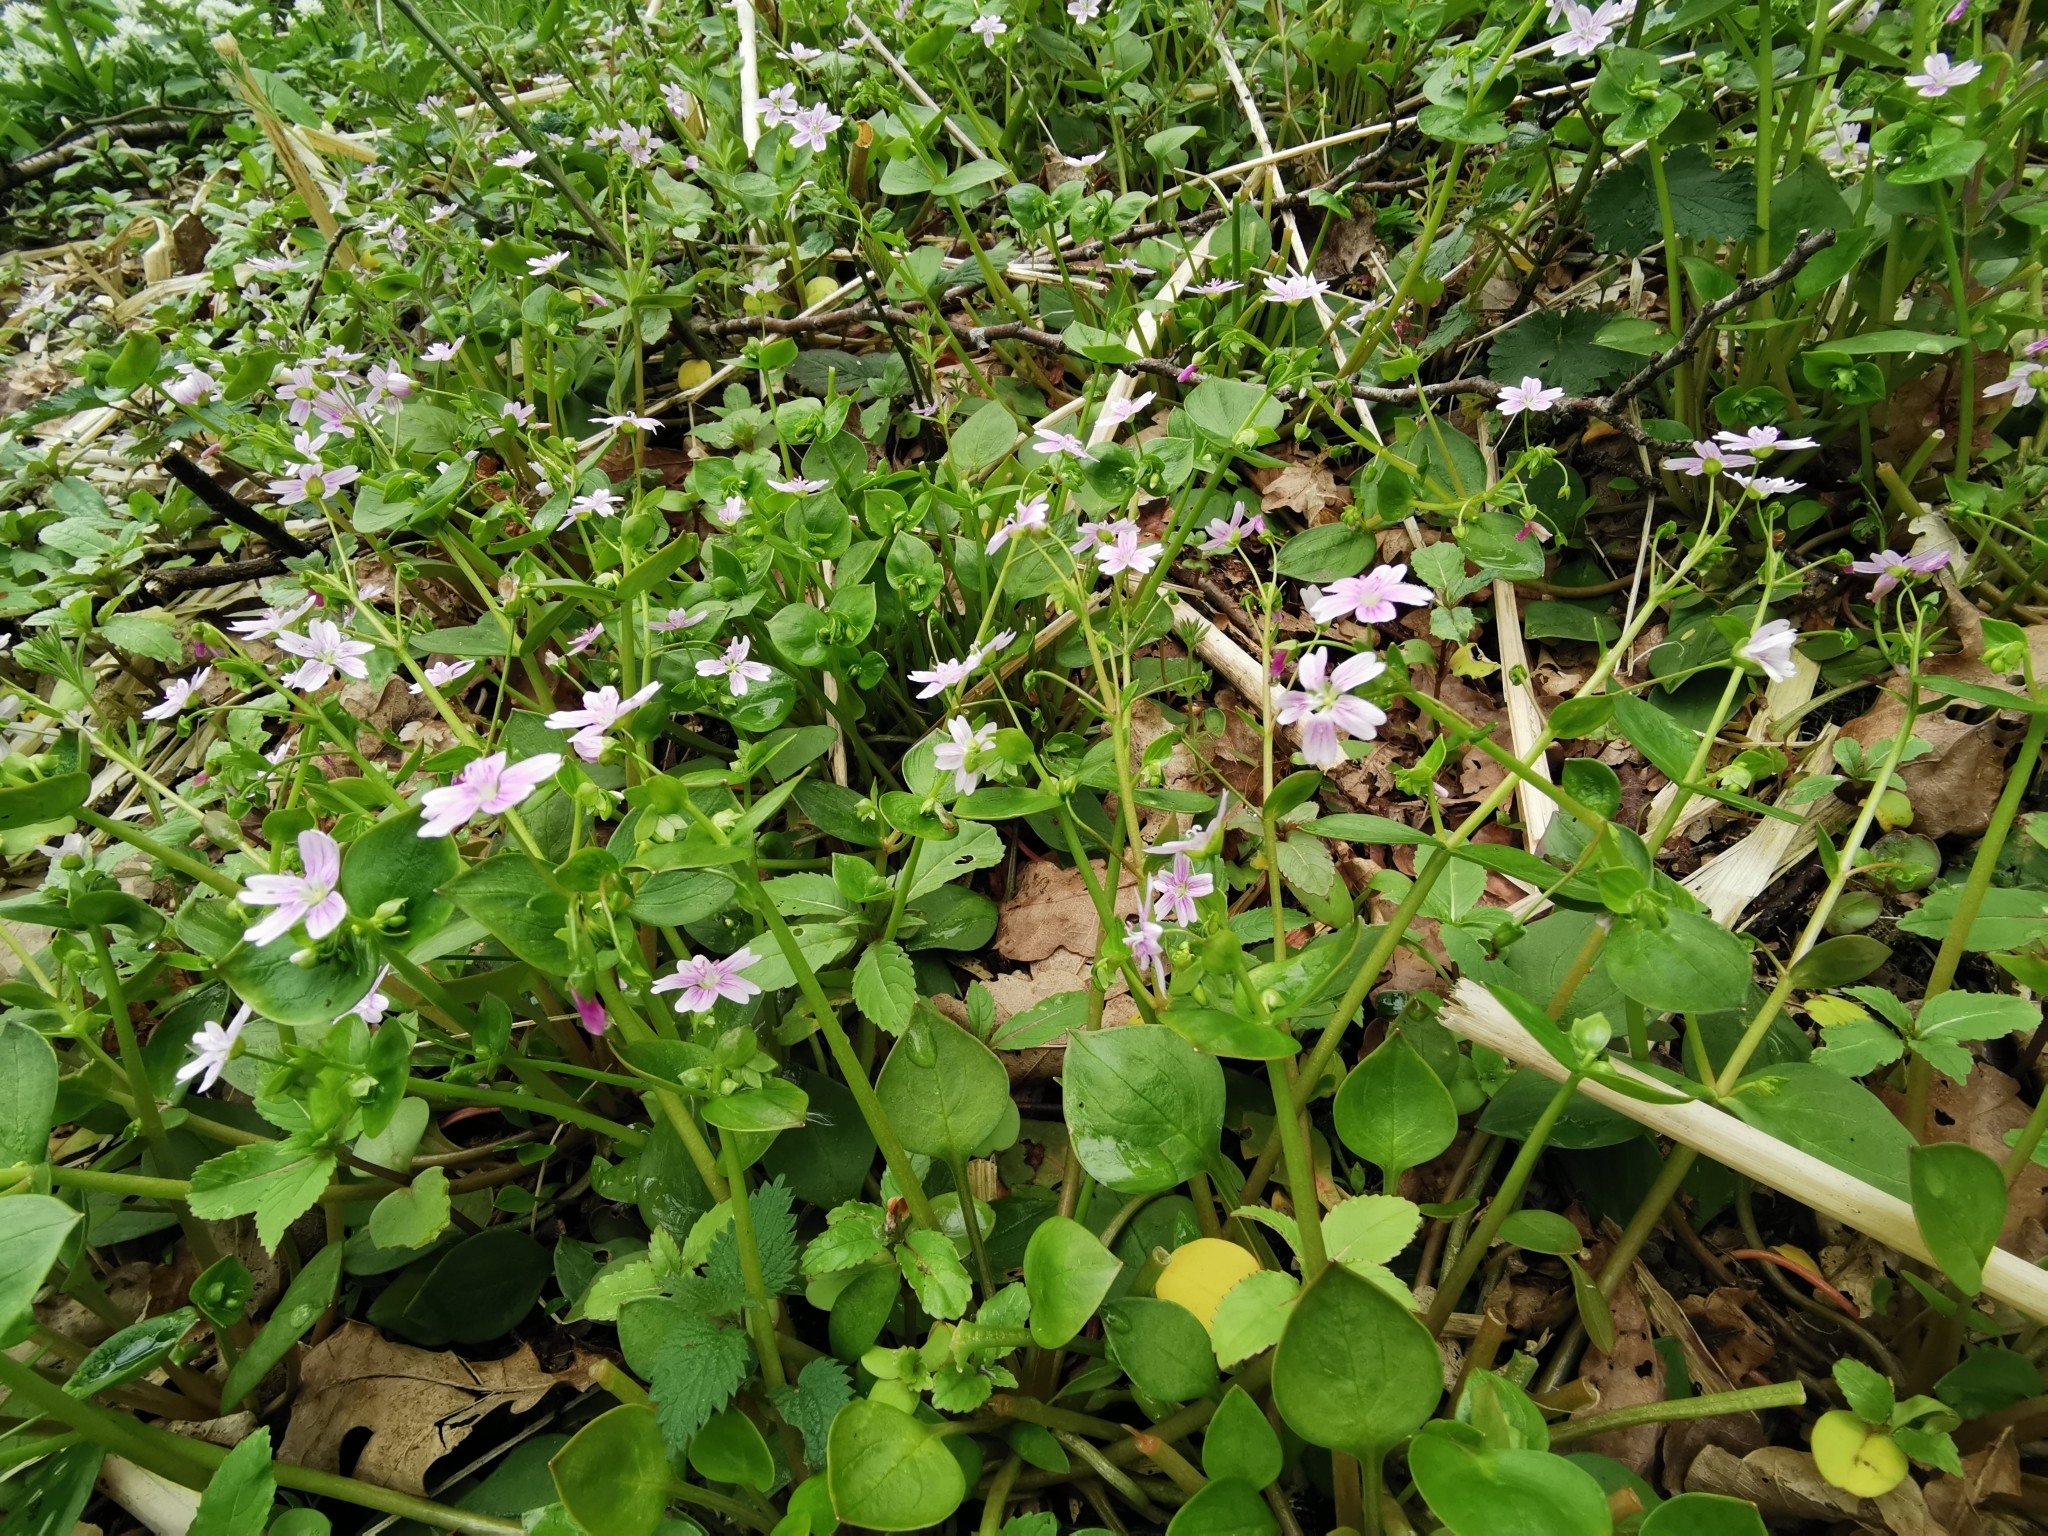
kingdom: Plantae
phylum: Tracheophyta
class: Magnoliopsida
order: Caryophyllales
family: Montiaceae
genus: Claytonia
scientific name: Claytonia sibirica
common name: Pink purslane
